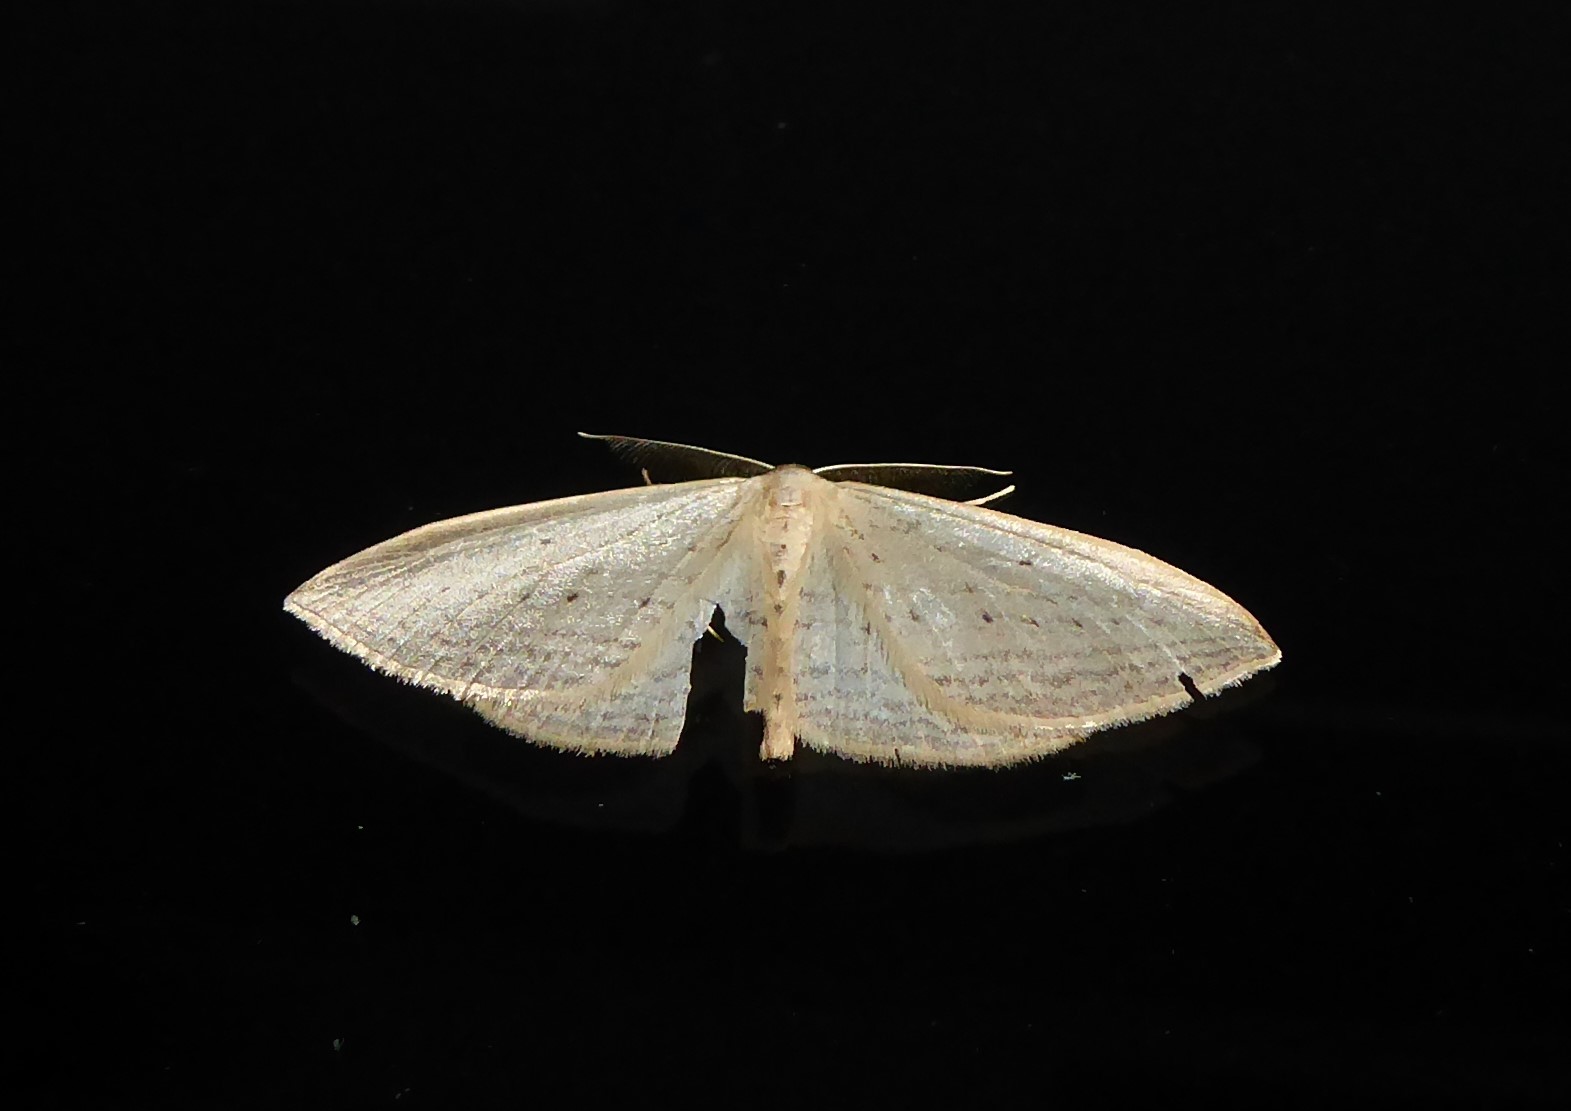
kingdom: Animalia
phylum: Arthropoda
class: Insecta
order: Lepidoptera
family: Geometridae
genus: Orthoclydon
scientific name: Orthoclydon praefectata
